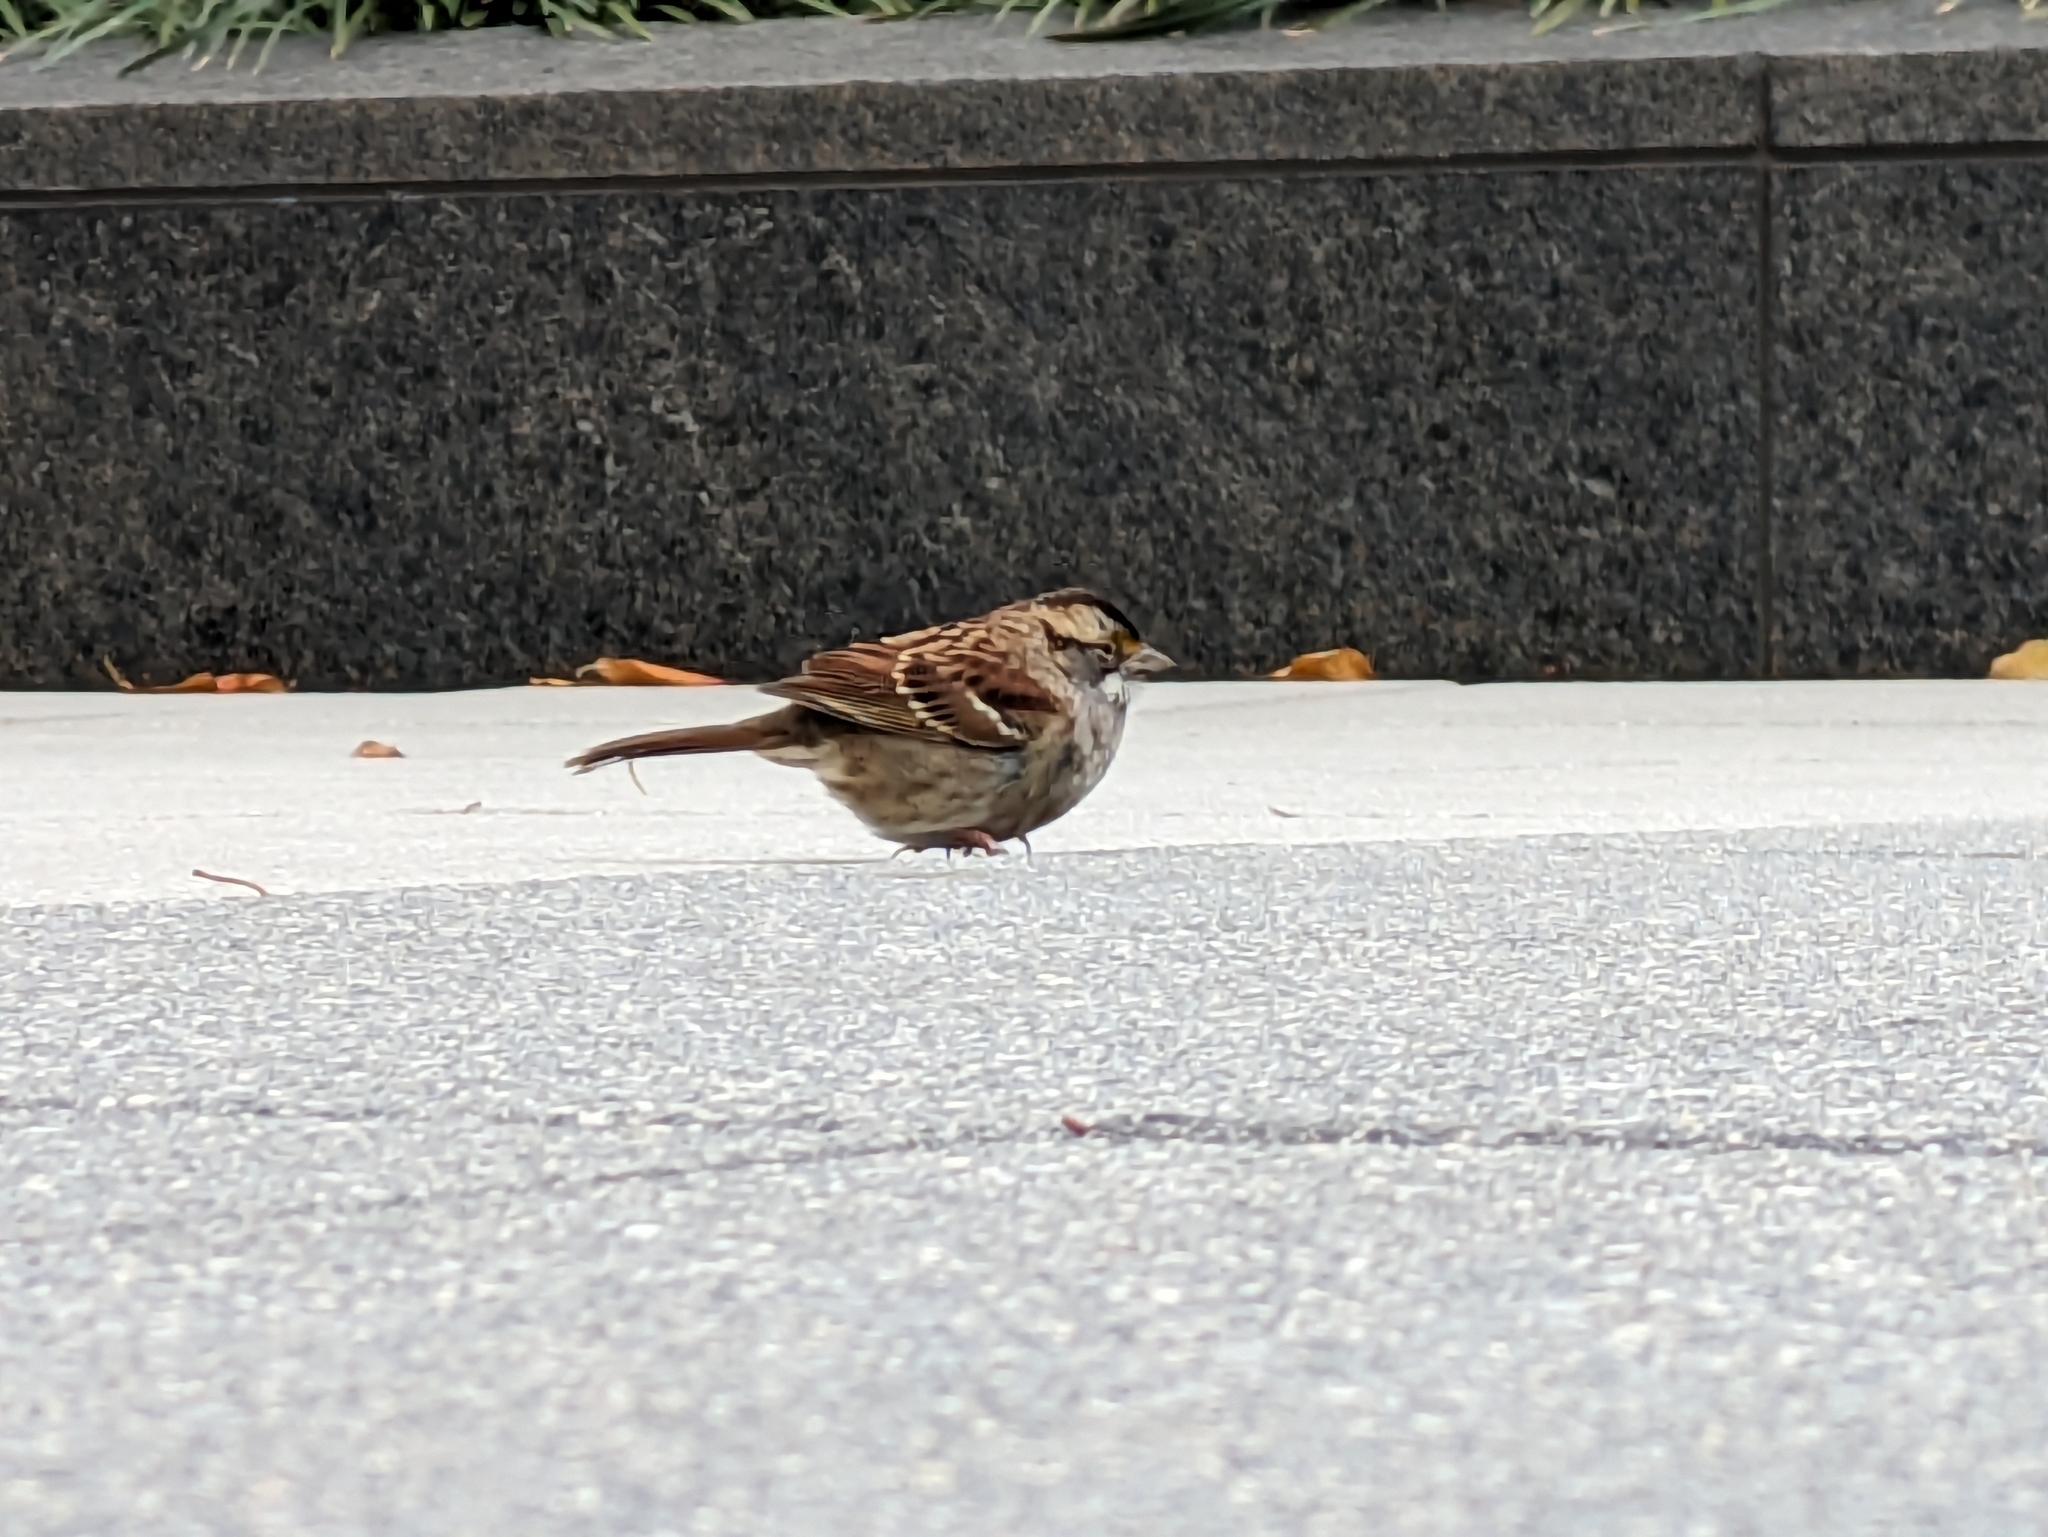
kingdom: Animalia
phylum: Chordata
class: Aves
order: Passeriformes
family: Passerellidae
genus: Zonotrichia
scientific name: Zonotrichia albicollis
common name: White-throated sparrow
